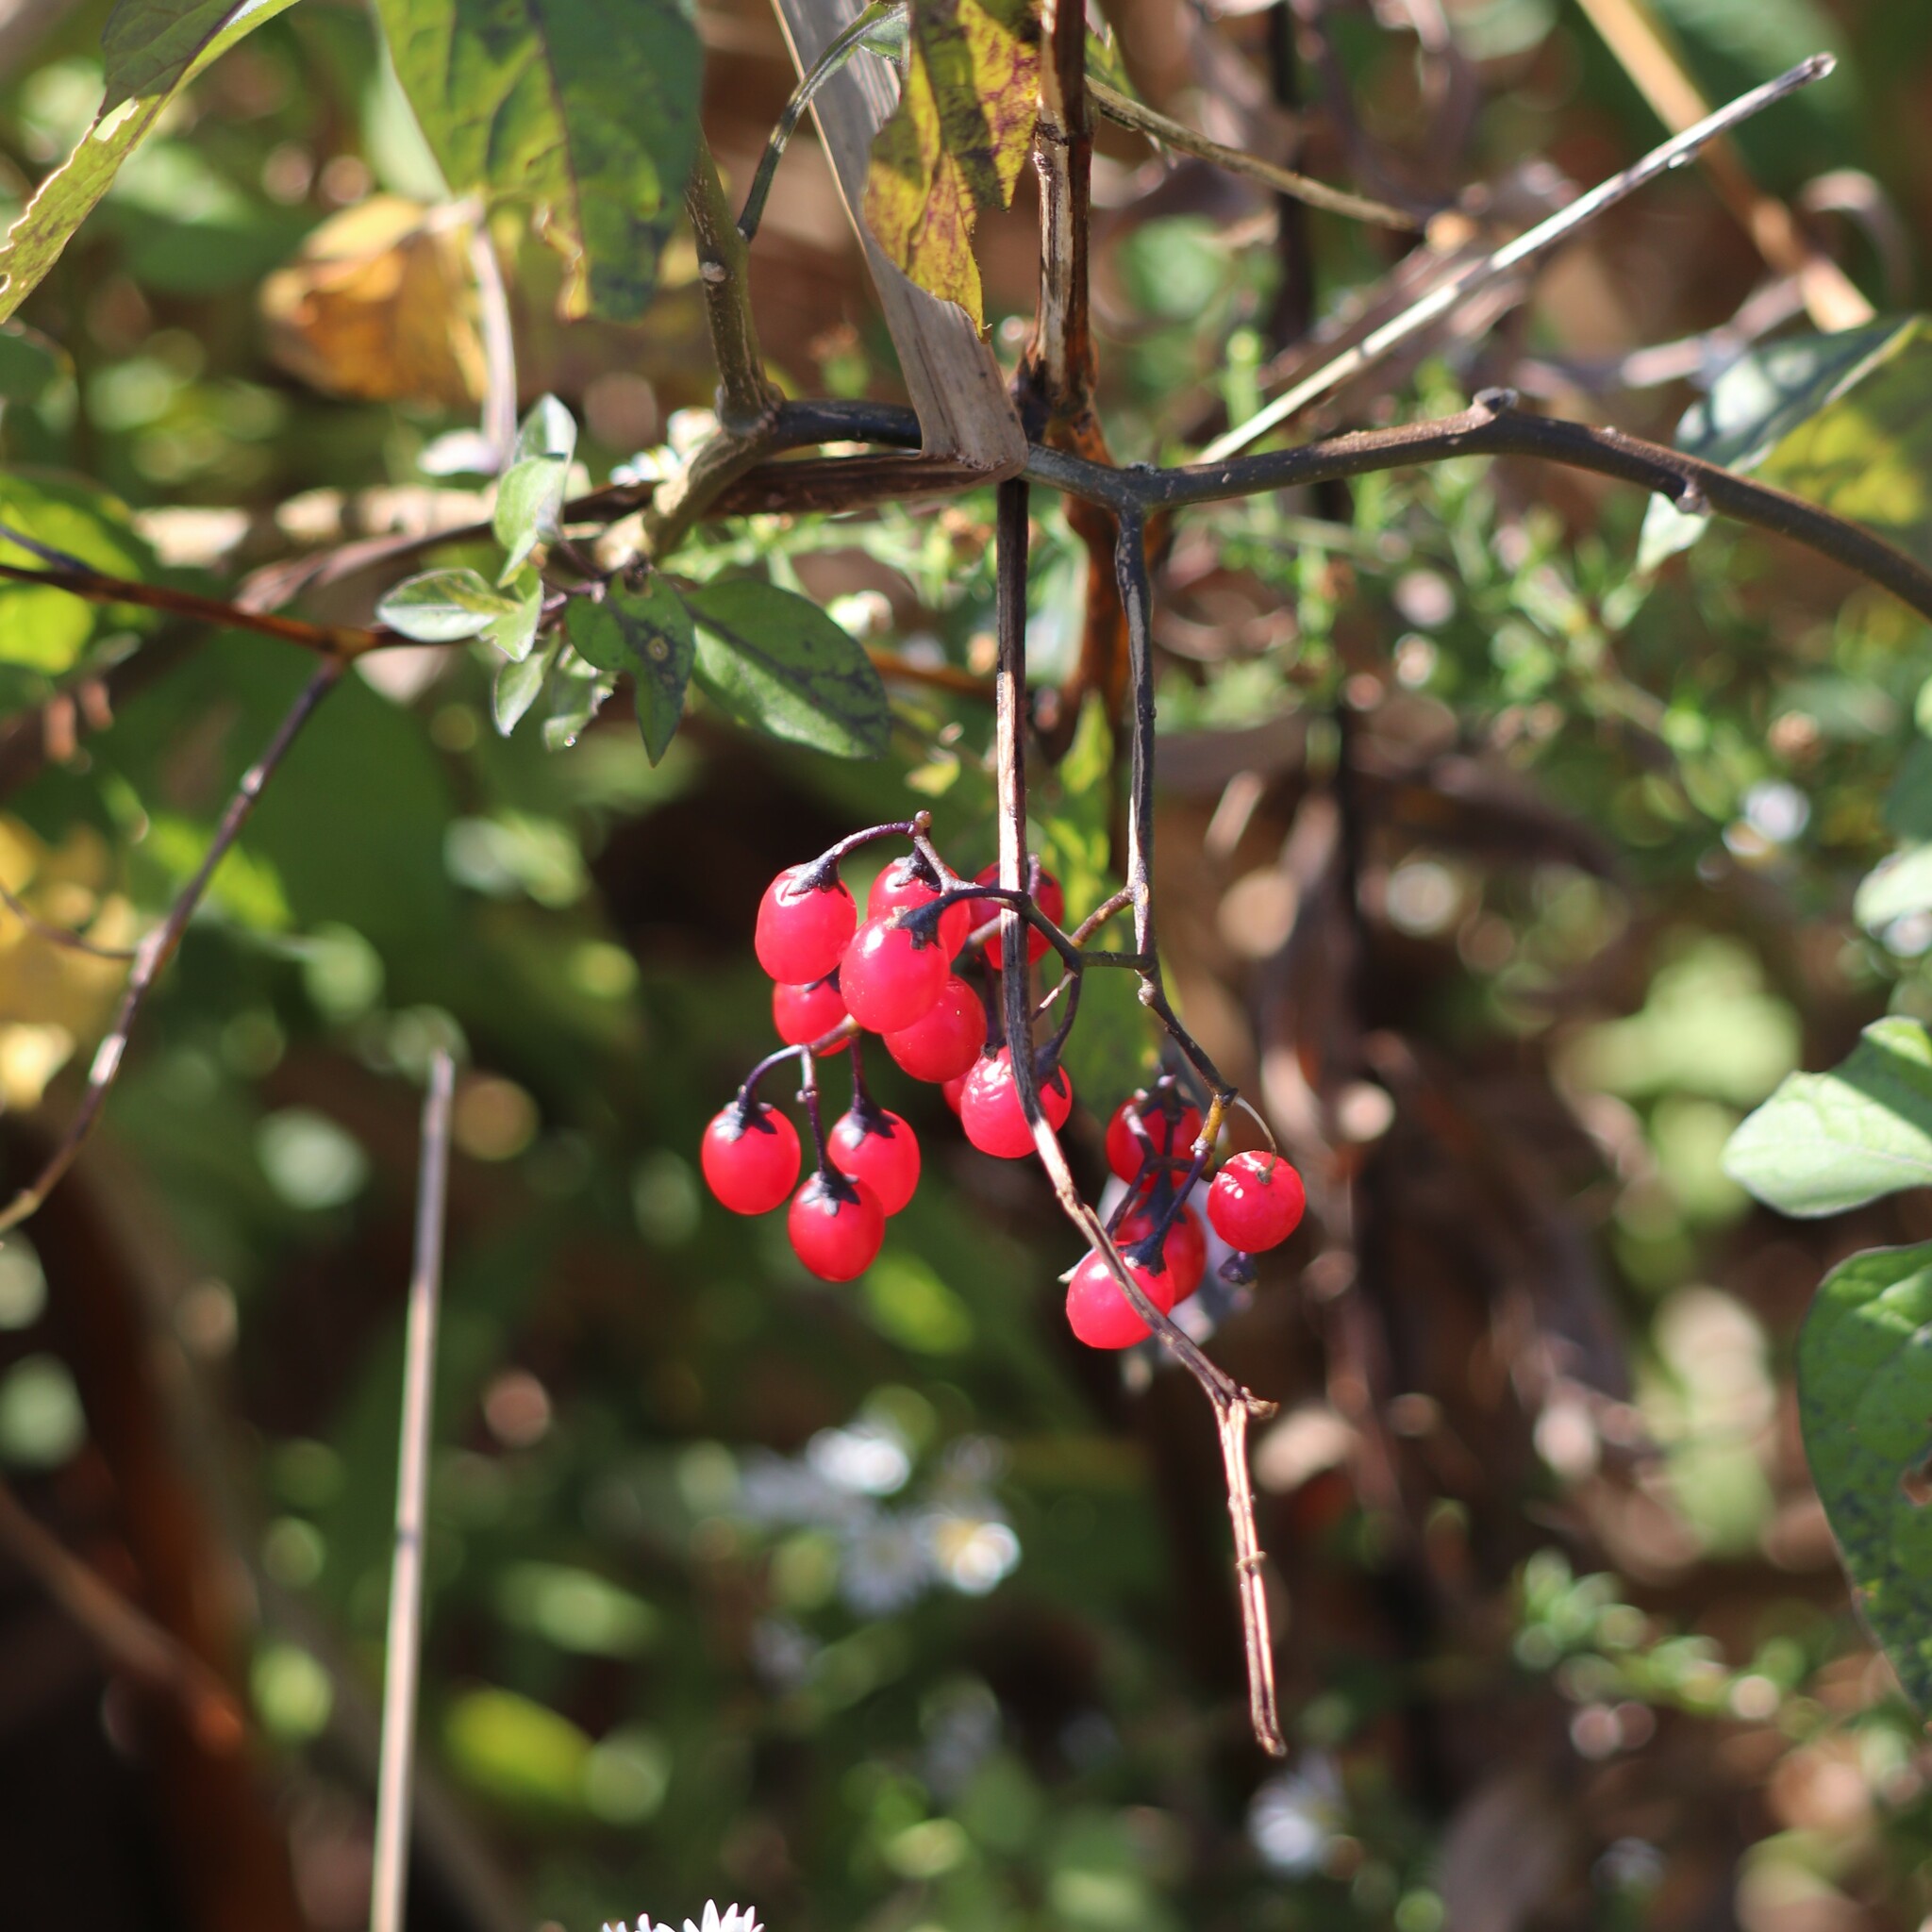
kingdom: Plantae
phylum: Tracheophyta
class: Magnoliopsida
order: Solanales
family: Solanaceae
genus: Solanum
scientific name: Solanum dulcamara
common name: Climbing nightshade
